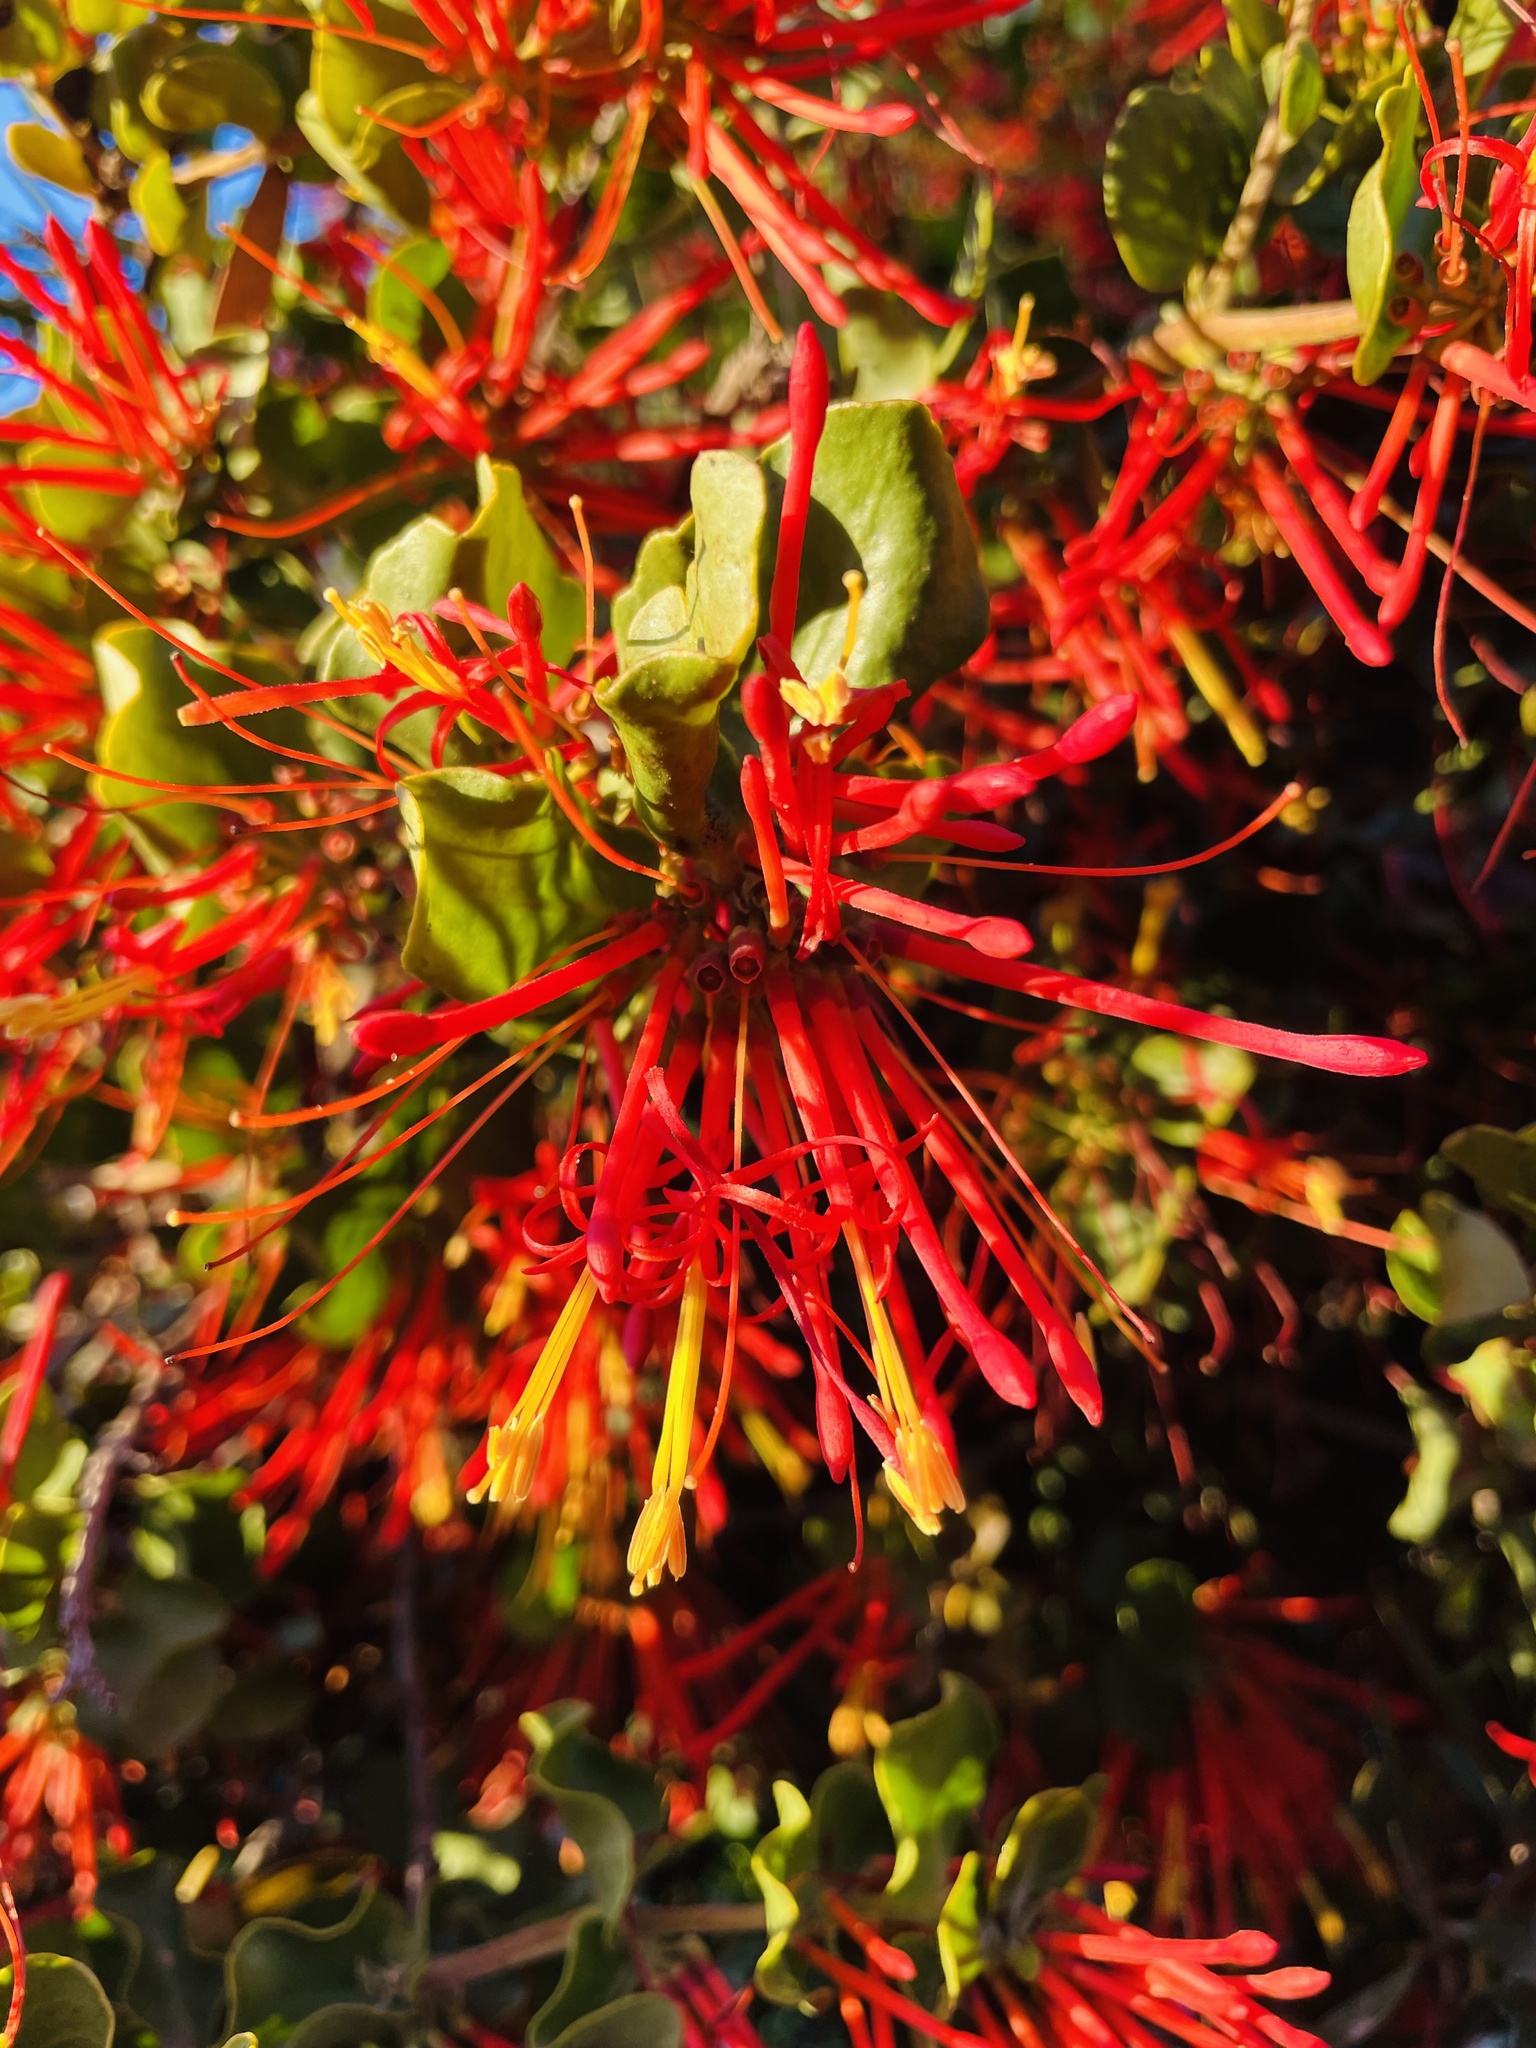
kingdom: Plantae
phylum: Tracheophyta
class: Magnoliopsida
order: Santalales
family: Loranthaceae
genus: Tristerix
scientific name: Tristerix corymbosus
